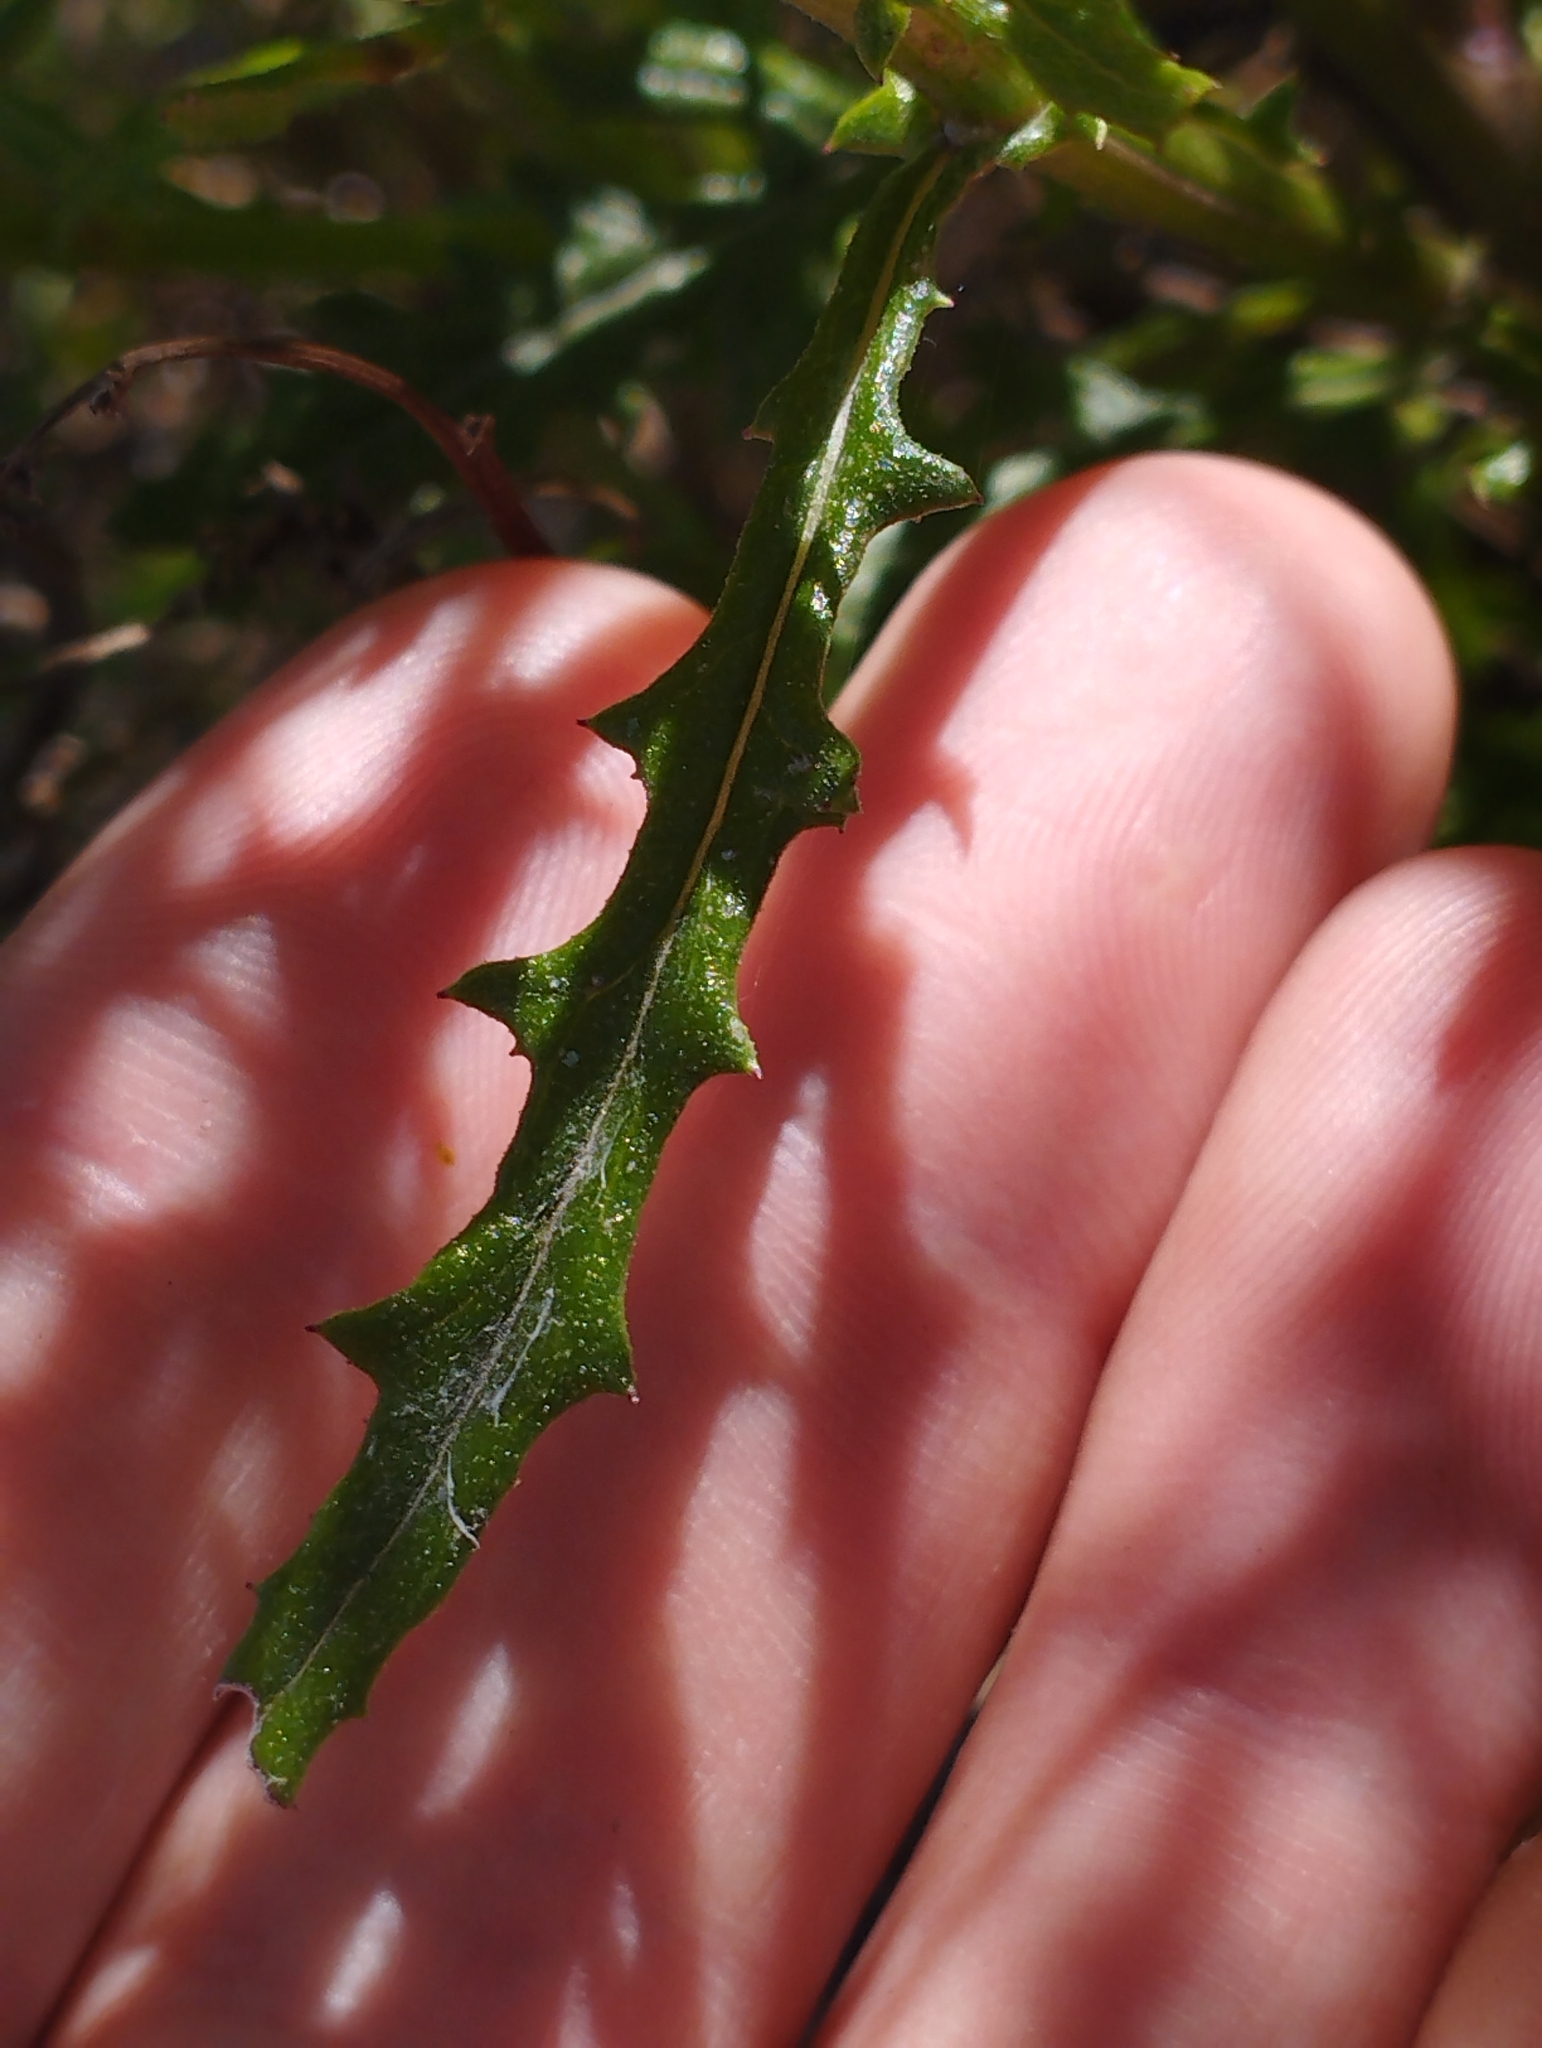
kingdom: Plantae
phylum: Tracheophyta
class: Magnoliopsida
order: Asterales
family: Asteraceae
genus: Senecio
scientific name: Senecio hispidulus
